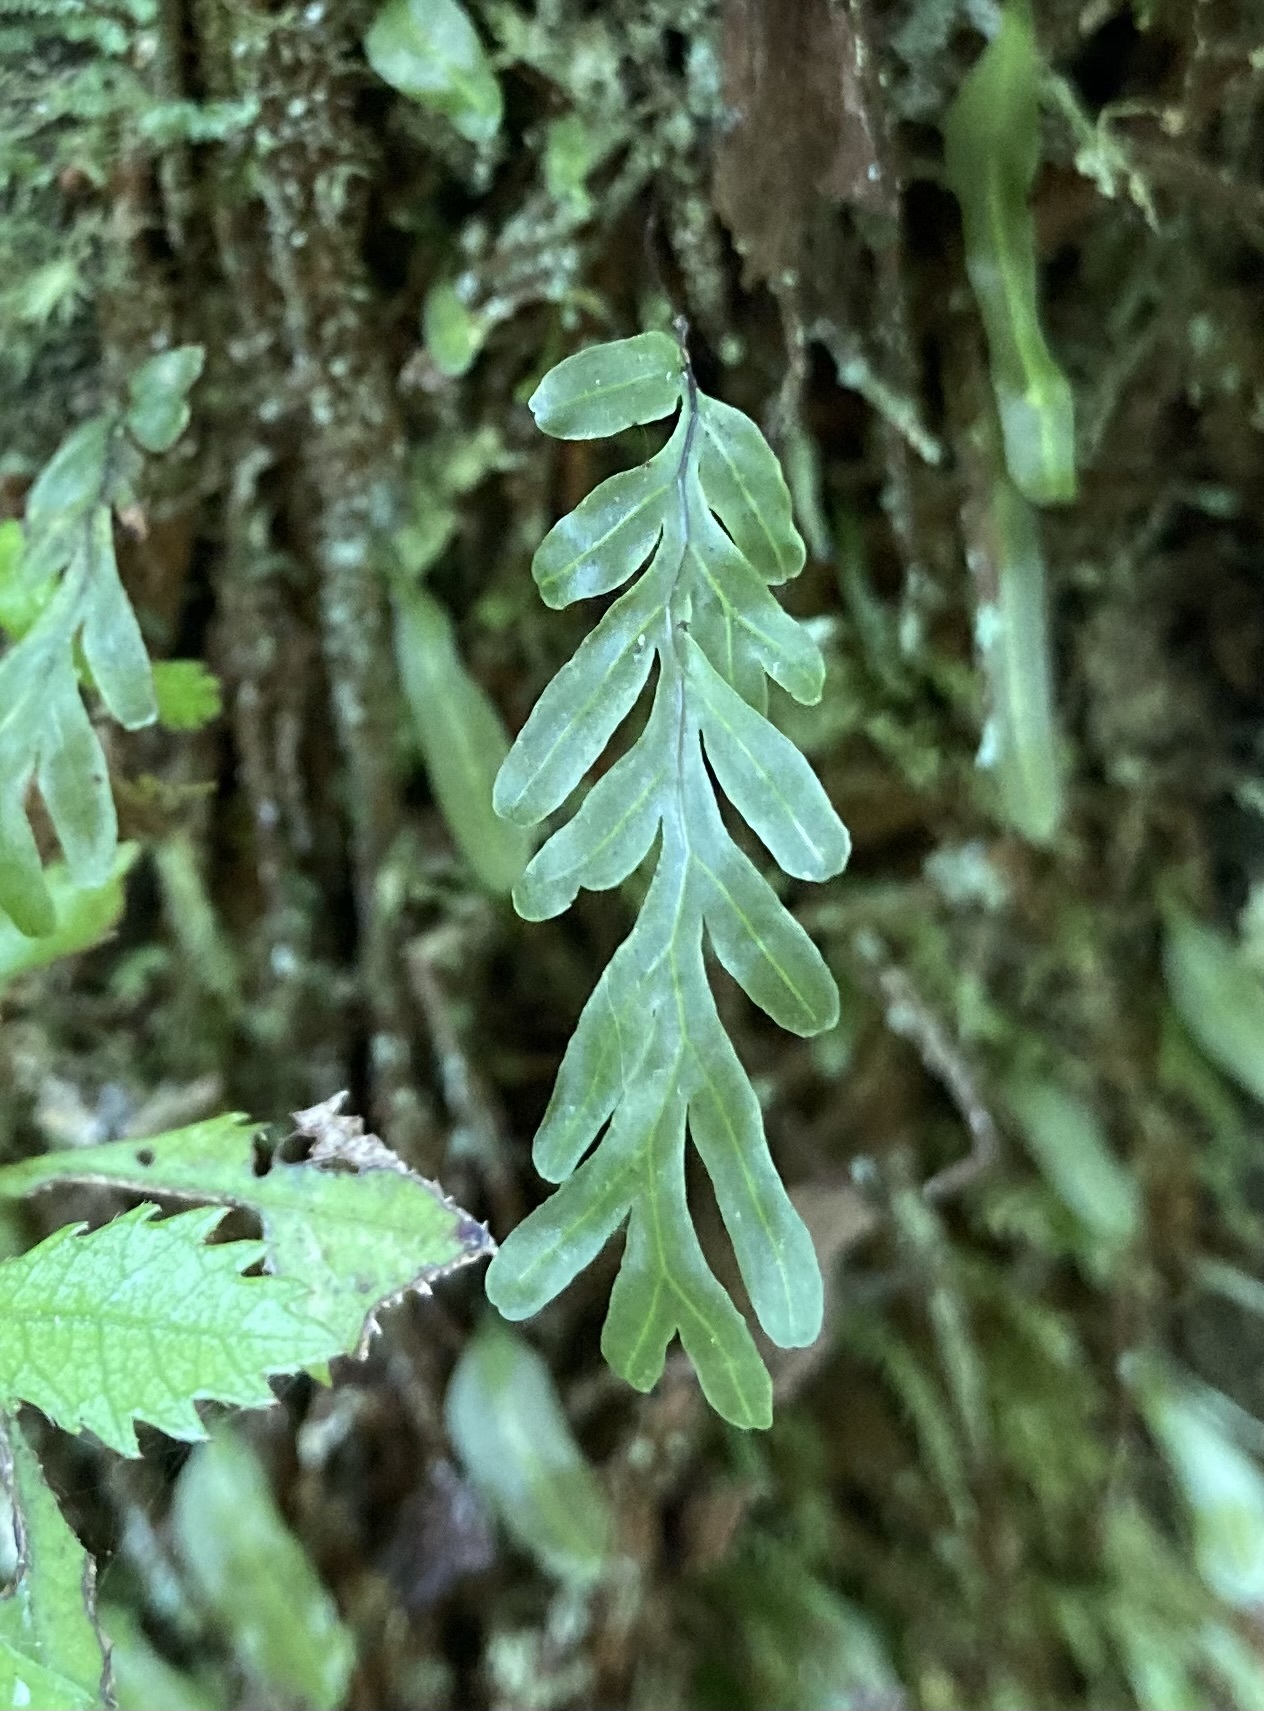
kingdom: Plantae
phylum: Tracheophyta
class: Polypodiopsida
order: Hymenophyllales
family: Hymenophyllaceae
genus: Hymenophyllum
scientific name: Hymenophyllum rarum
